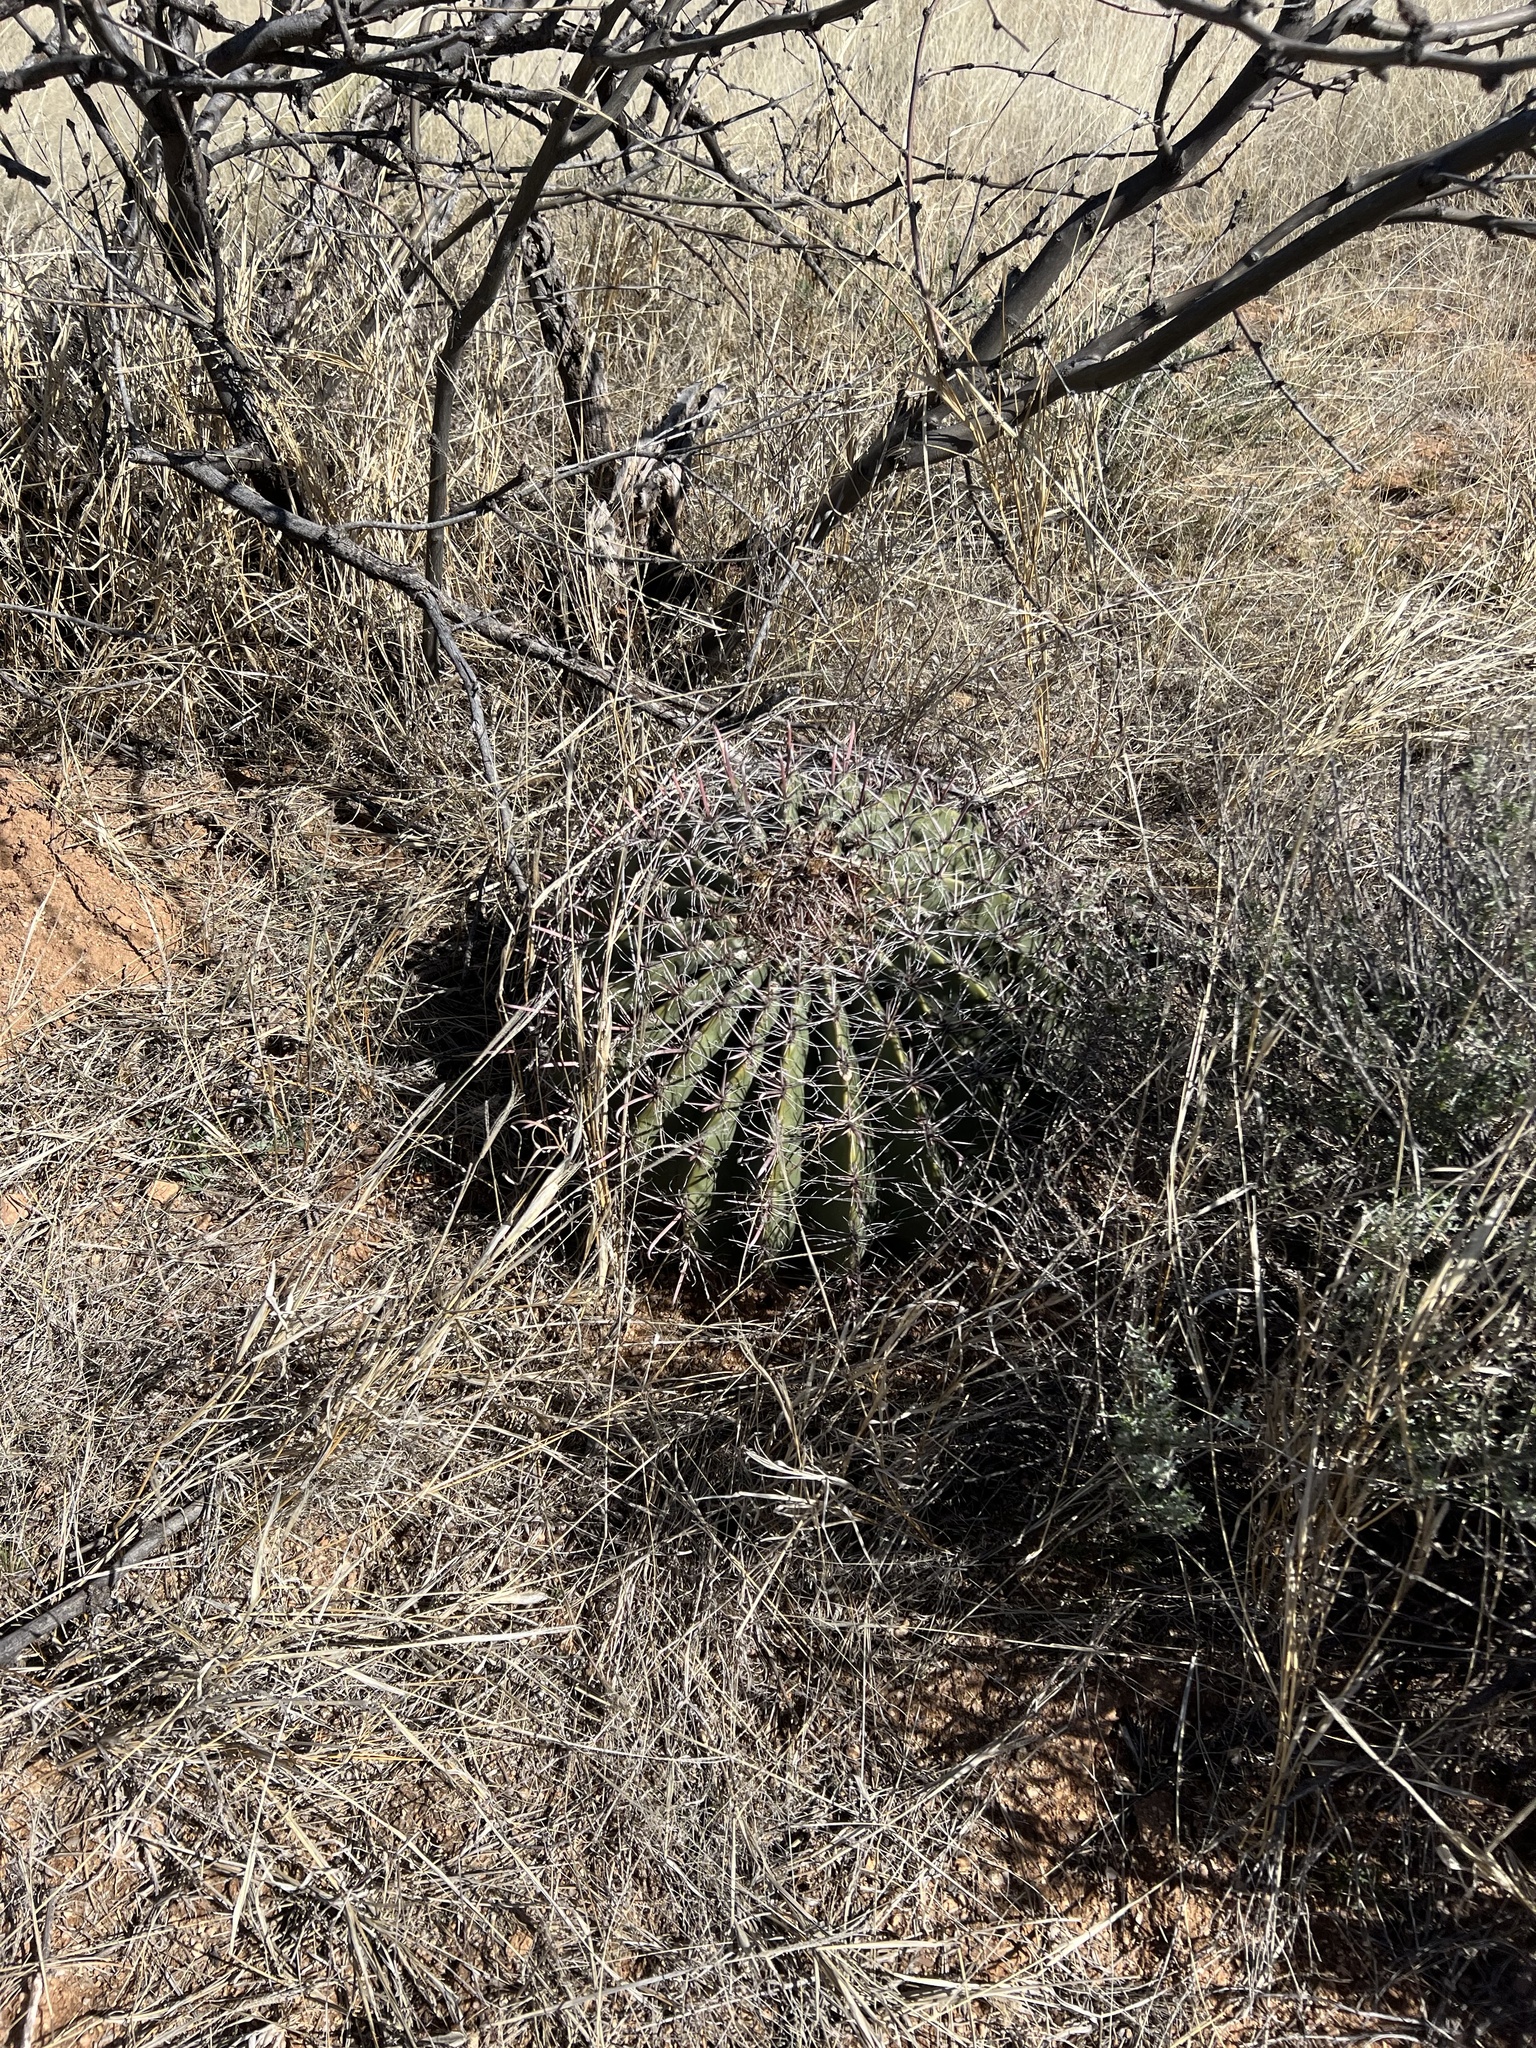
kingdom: Plantae
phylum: Tracheophyta
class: Magnoliopsida
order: Caryophyllales
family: Cactaceae
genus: Ferocactus
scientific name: Ferocactus wislizeni
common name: Candy barrel cactus
